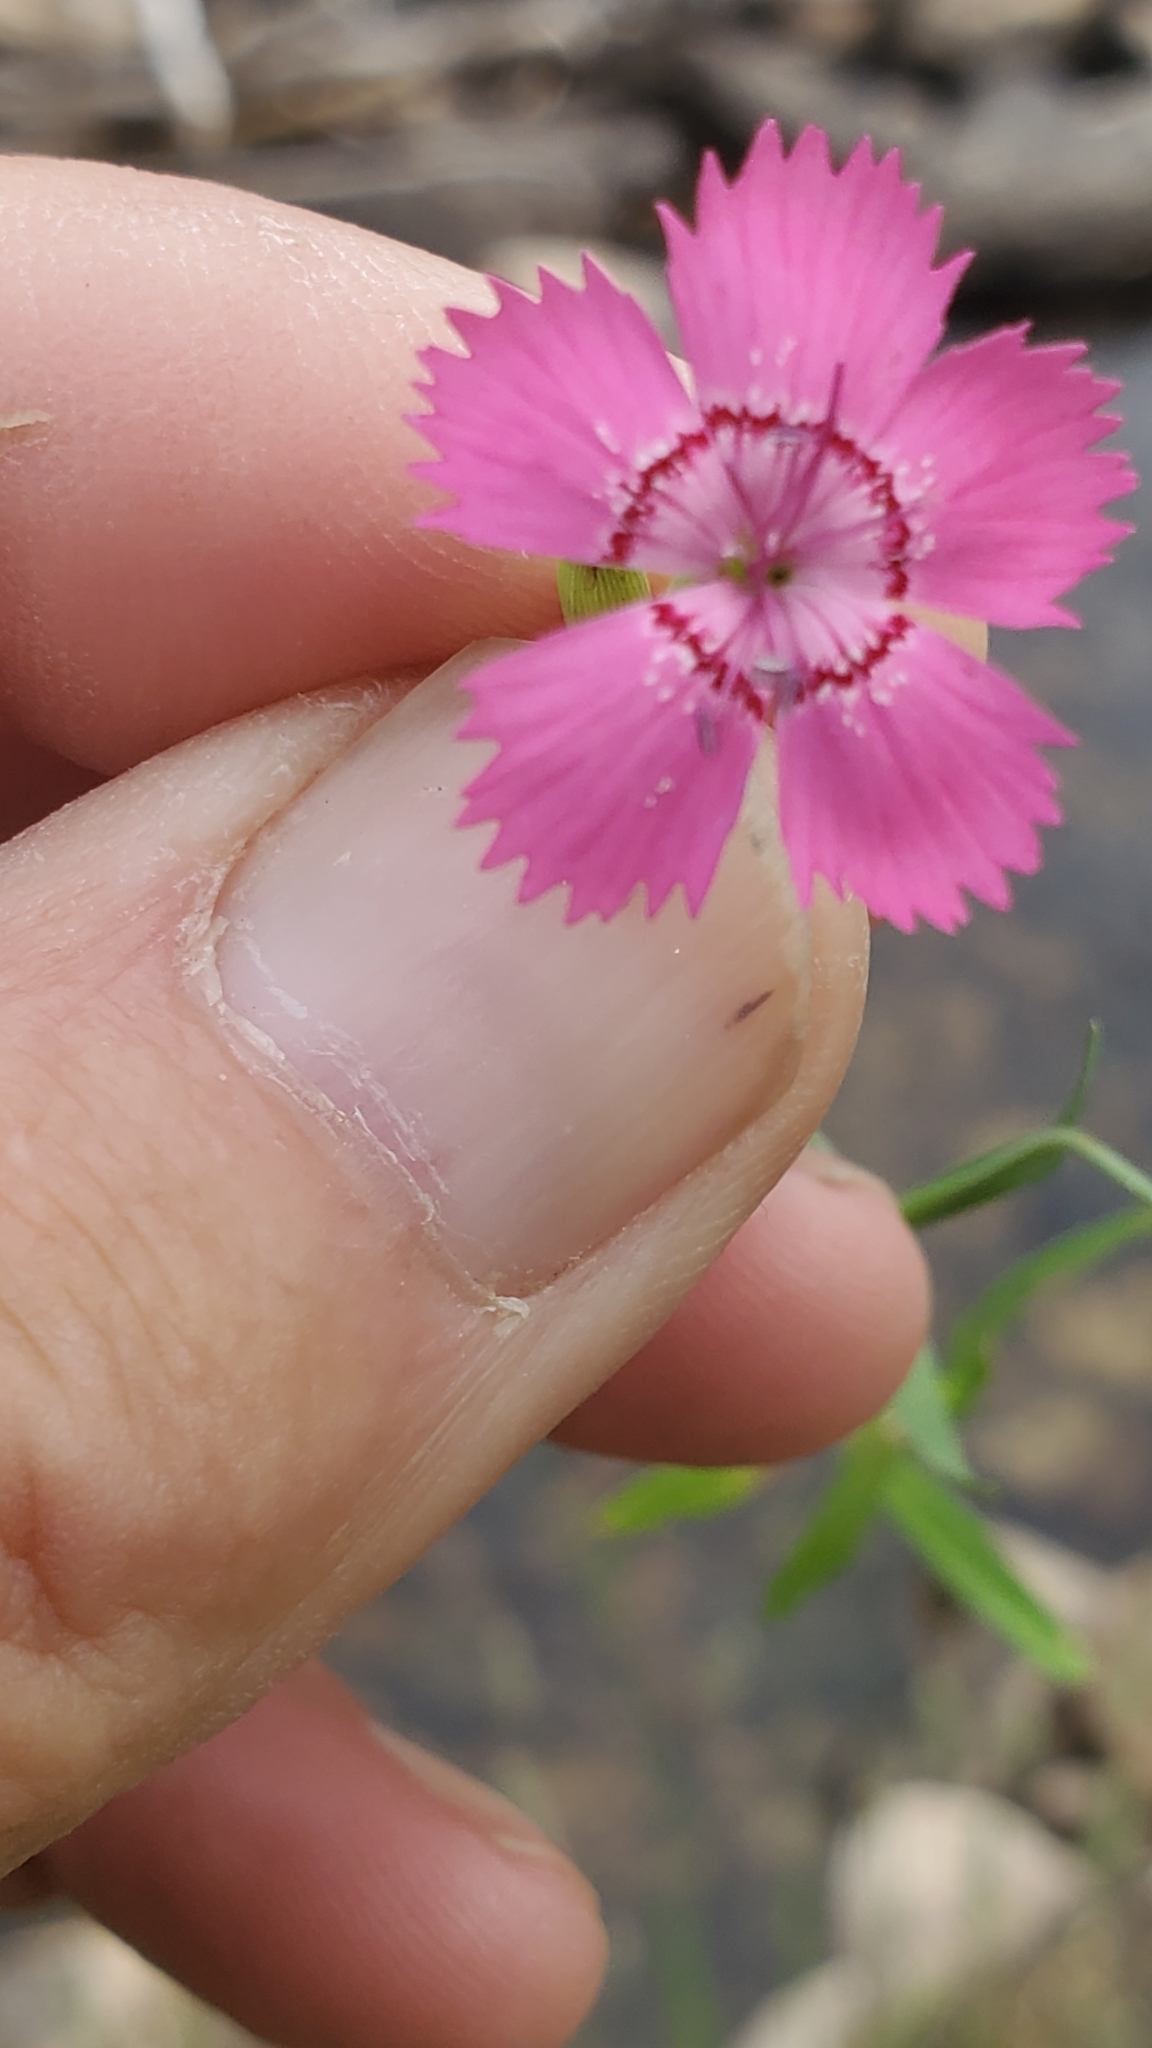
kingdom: Plantae
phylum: Tracheophyta
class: Magnoliopsida
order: Caryophyllales
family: Caryophyllaceae
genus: Dianthus
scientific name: Dianthus deltoides
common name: Maiden pink
